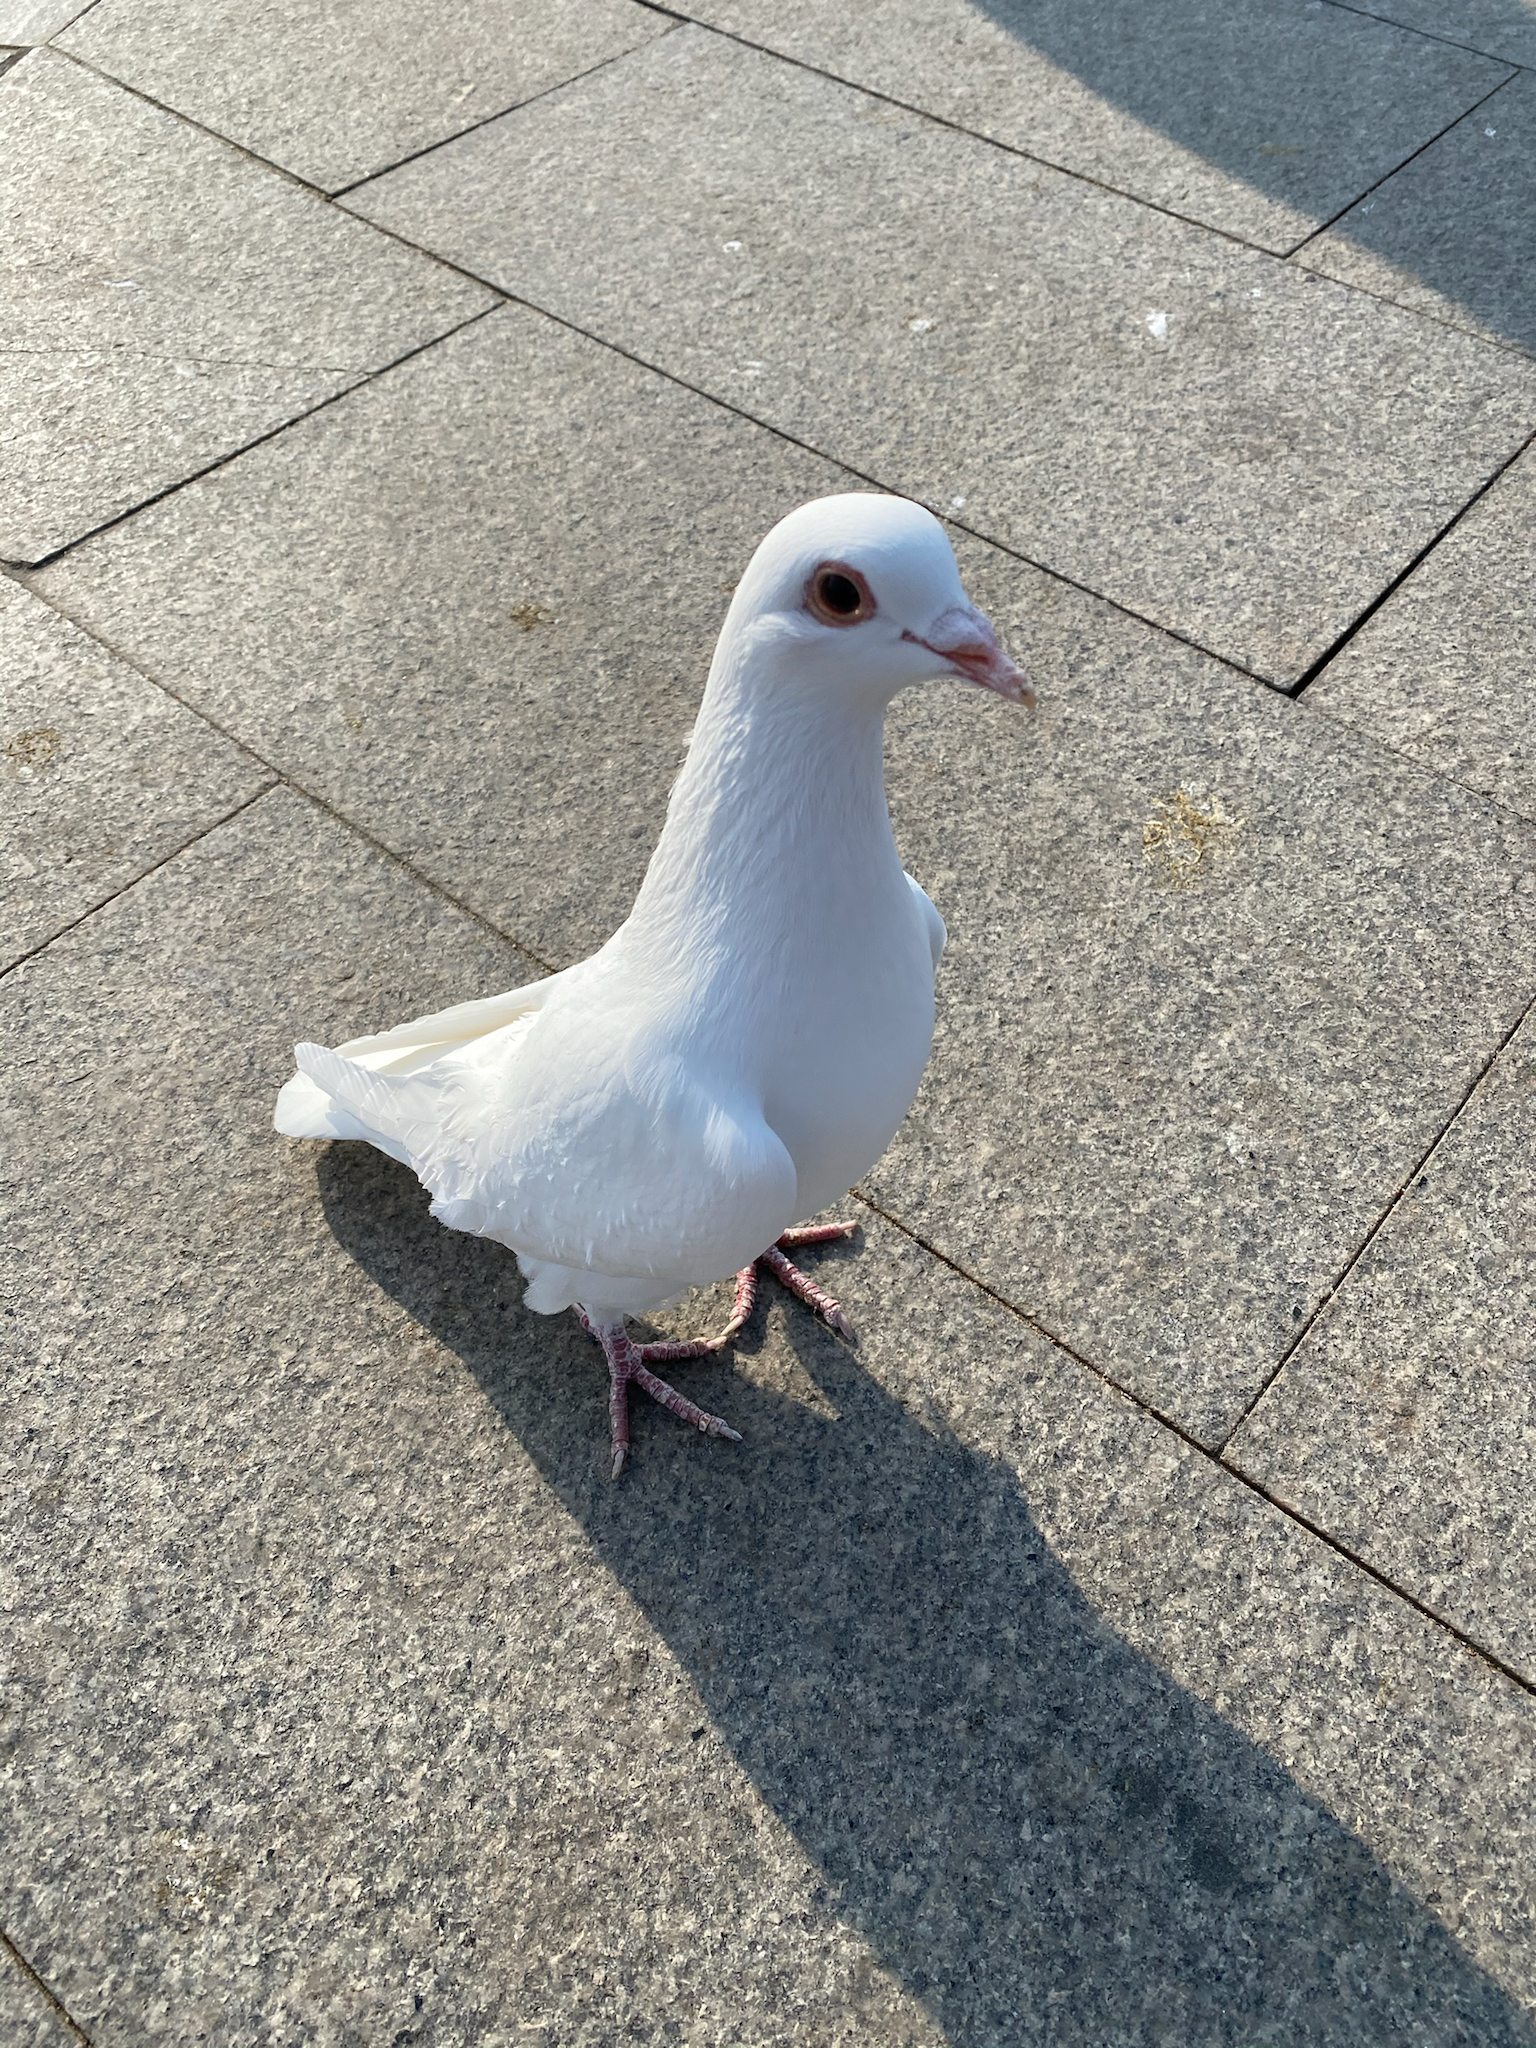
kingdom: Animalia
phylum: Chordata
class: Aves
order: Columbiformes
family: Columbidae
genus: Columba
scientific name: Columba livia
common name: Rock pigeon
